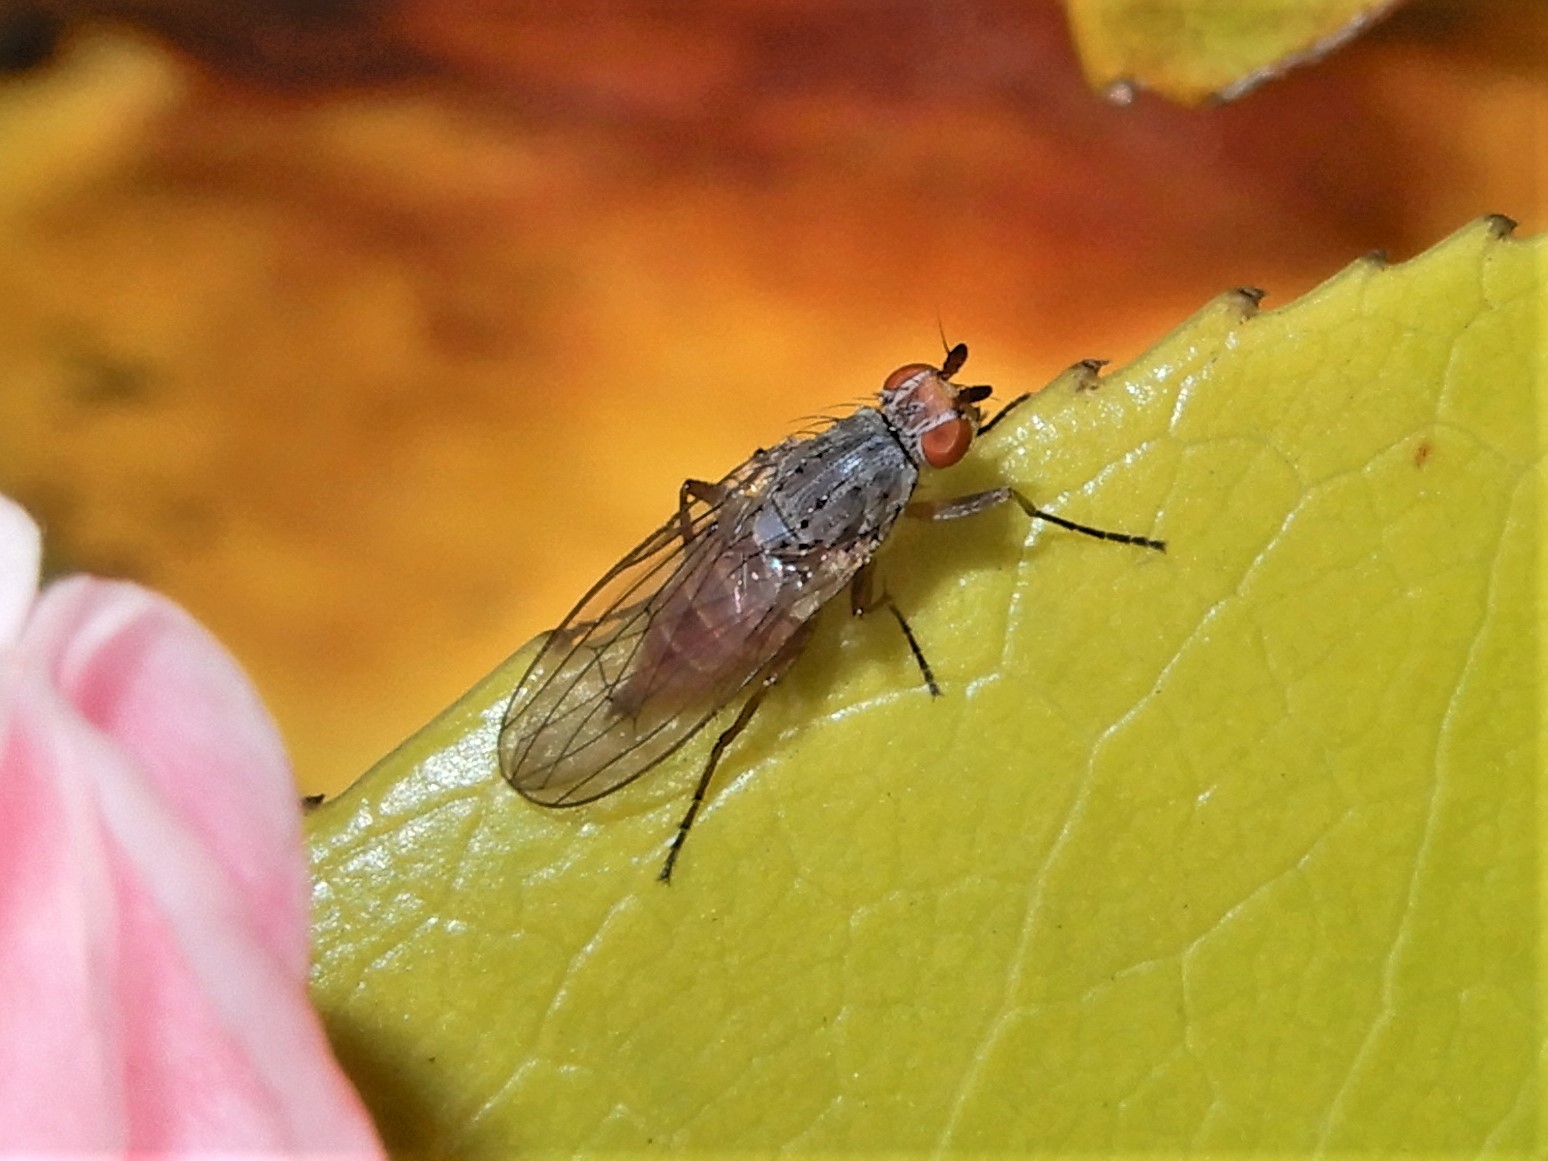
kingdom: Animalia
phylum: Arthropoda
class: Insecta
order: Diptera
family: Heleomyzidae
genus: Tephrochlamys
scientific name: Tephrochlamys rufiventris
